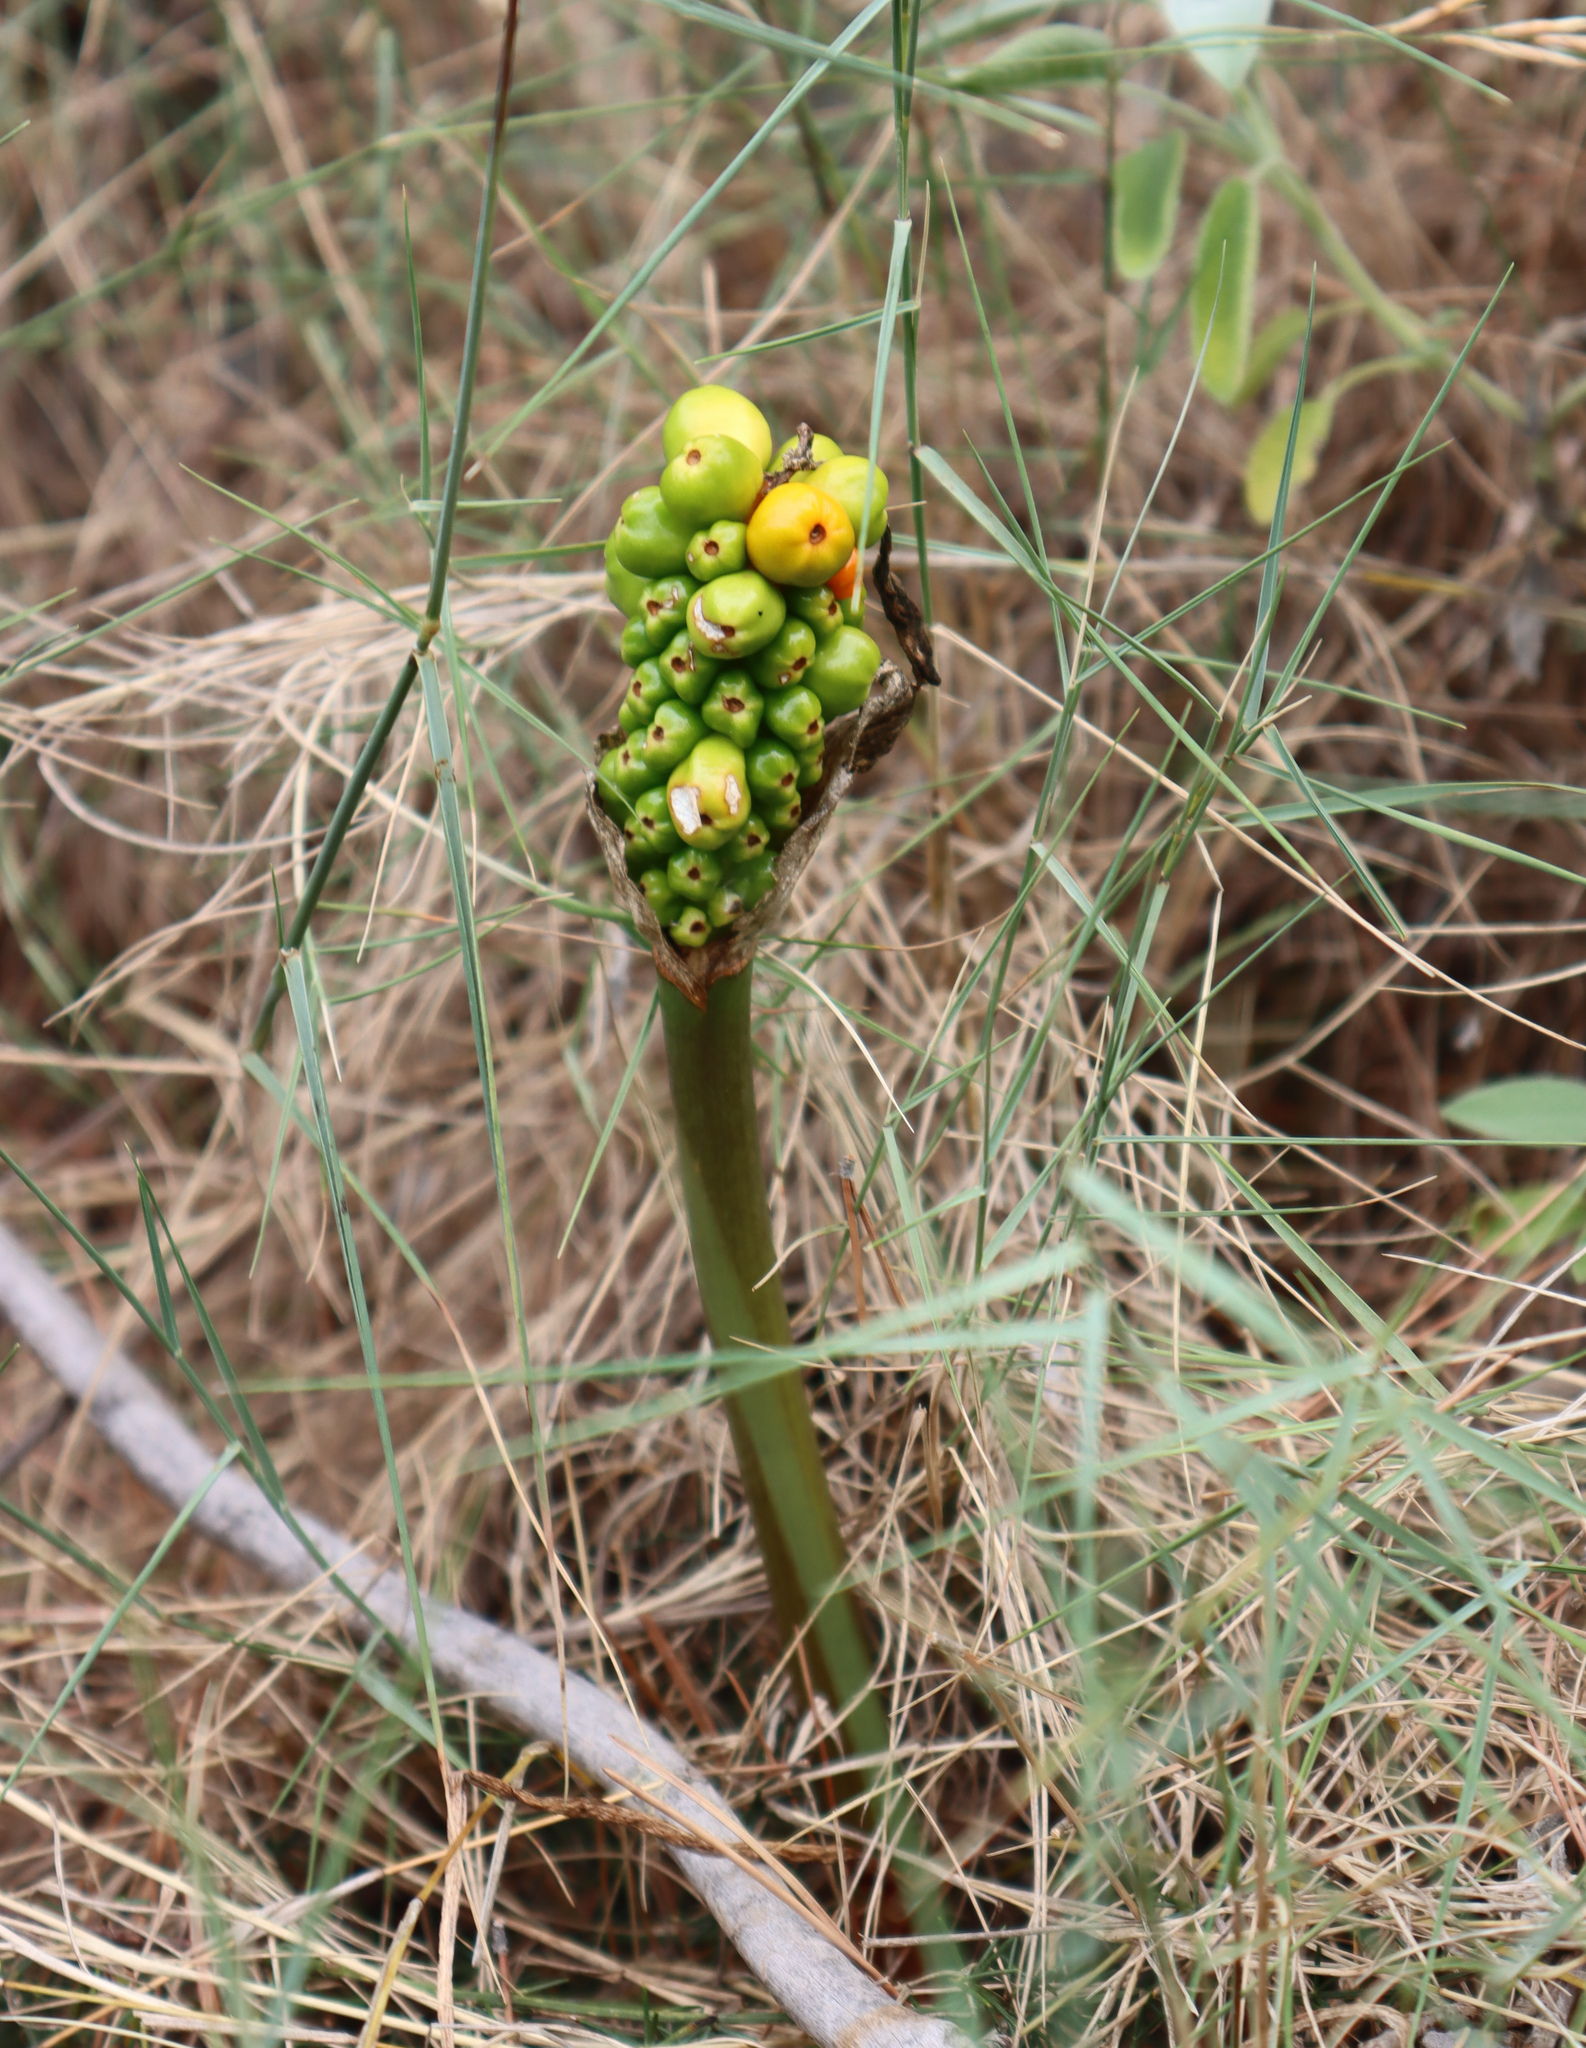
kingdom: Plantae
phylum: Tracheophyta
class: Liliopsida
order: Alismatales
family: Araceae
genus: Arum
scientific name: Arum italicum
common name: Italian lords-and-ladies
